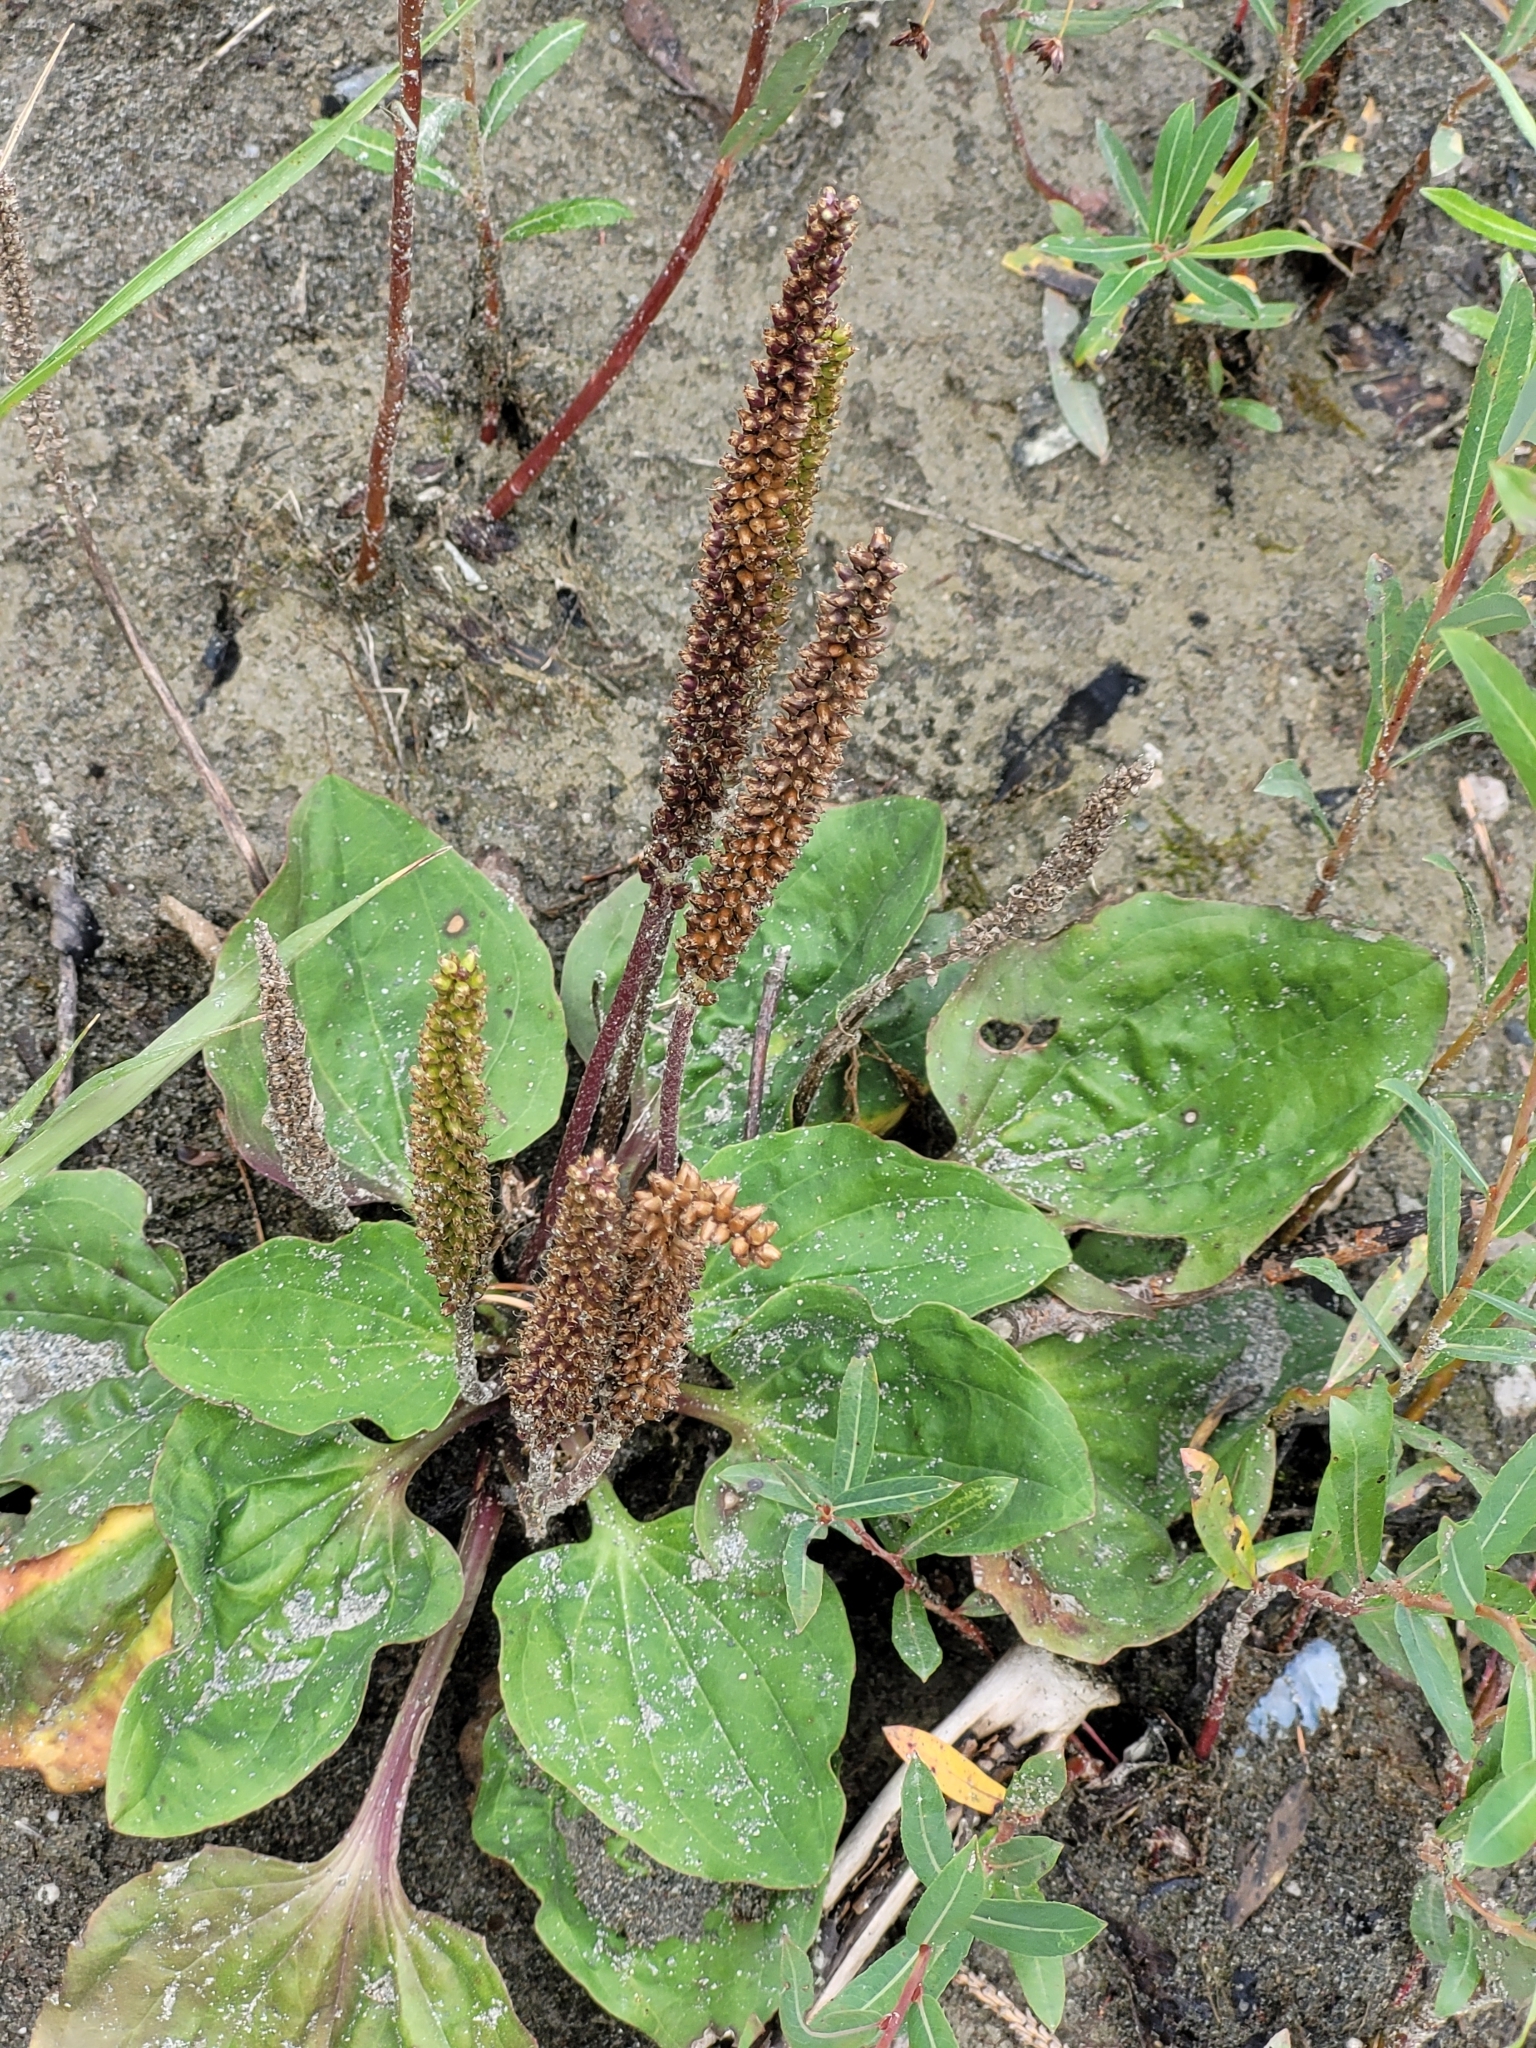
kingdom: Plantae
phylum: Tracheophyta
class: Magnoliopsida
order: Lamiales
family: Plantaginaceae
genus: Plantago
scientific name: Plantago major
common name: Common plantain
